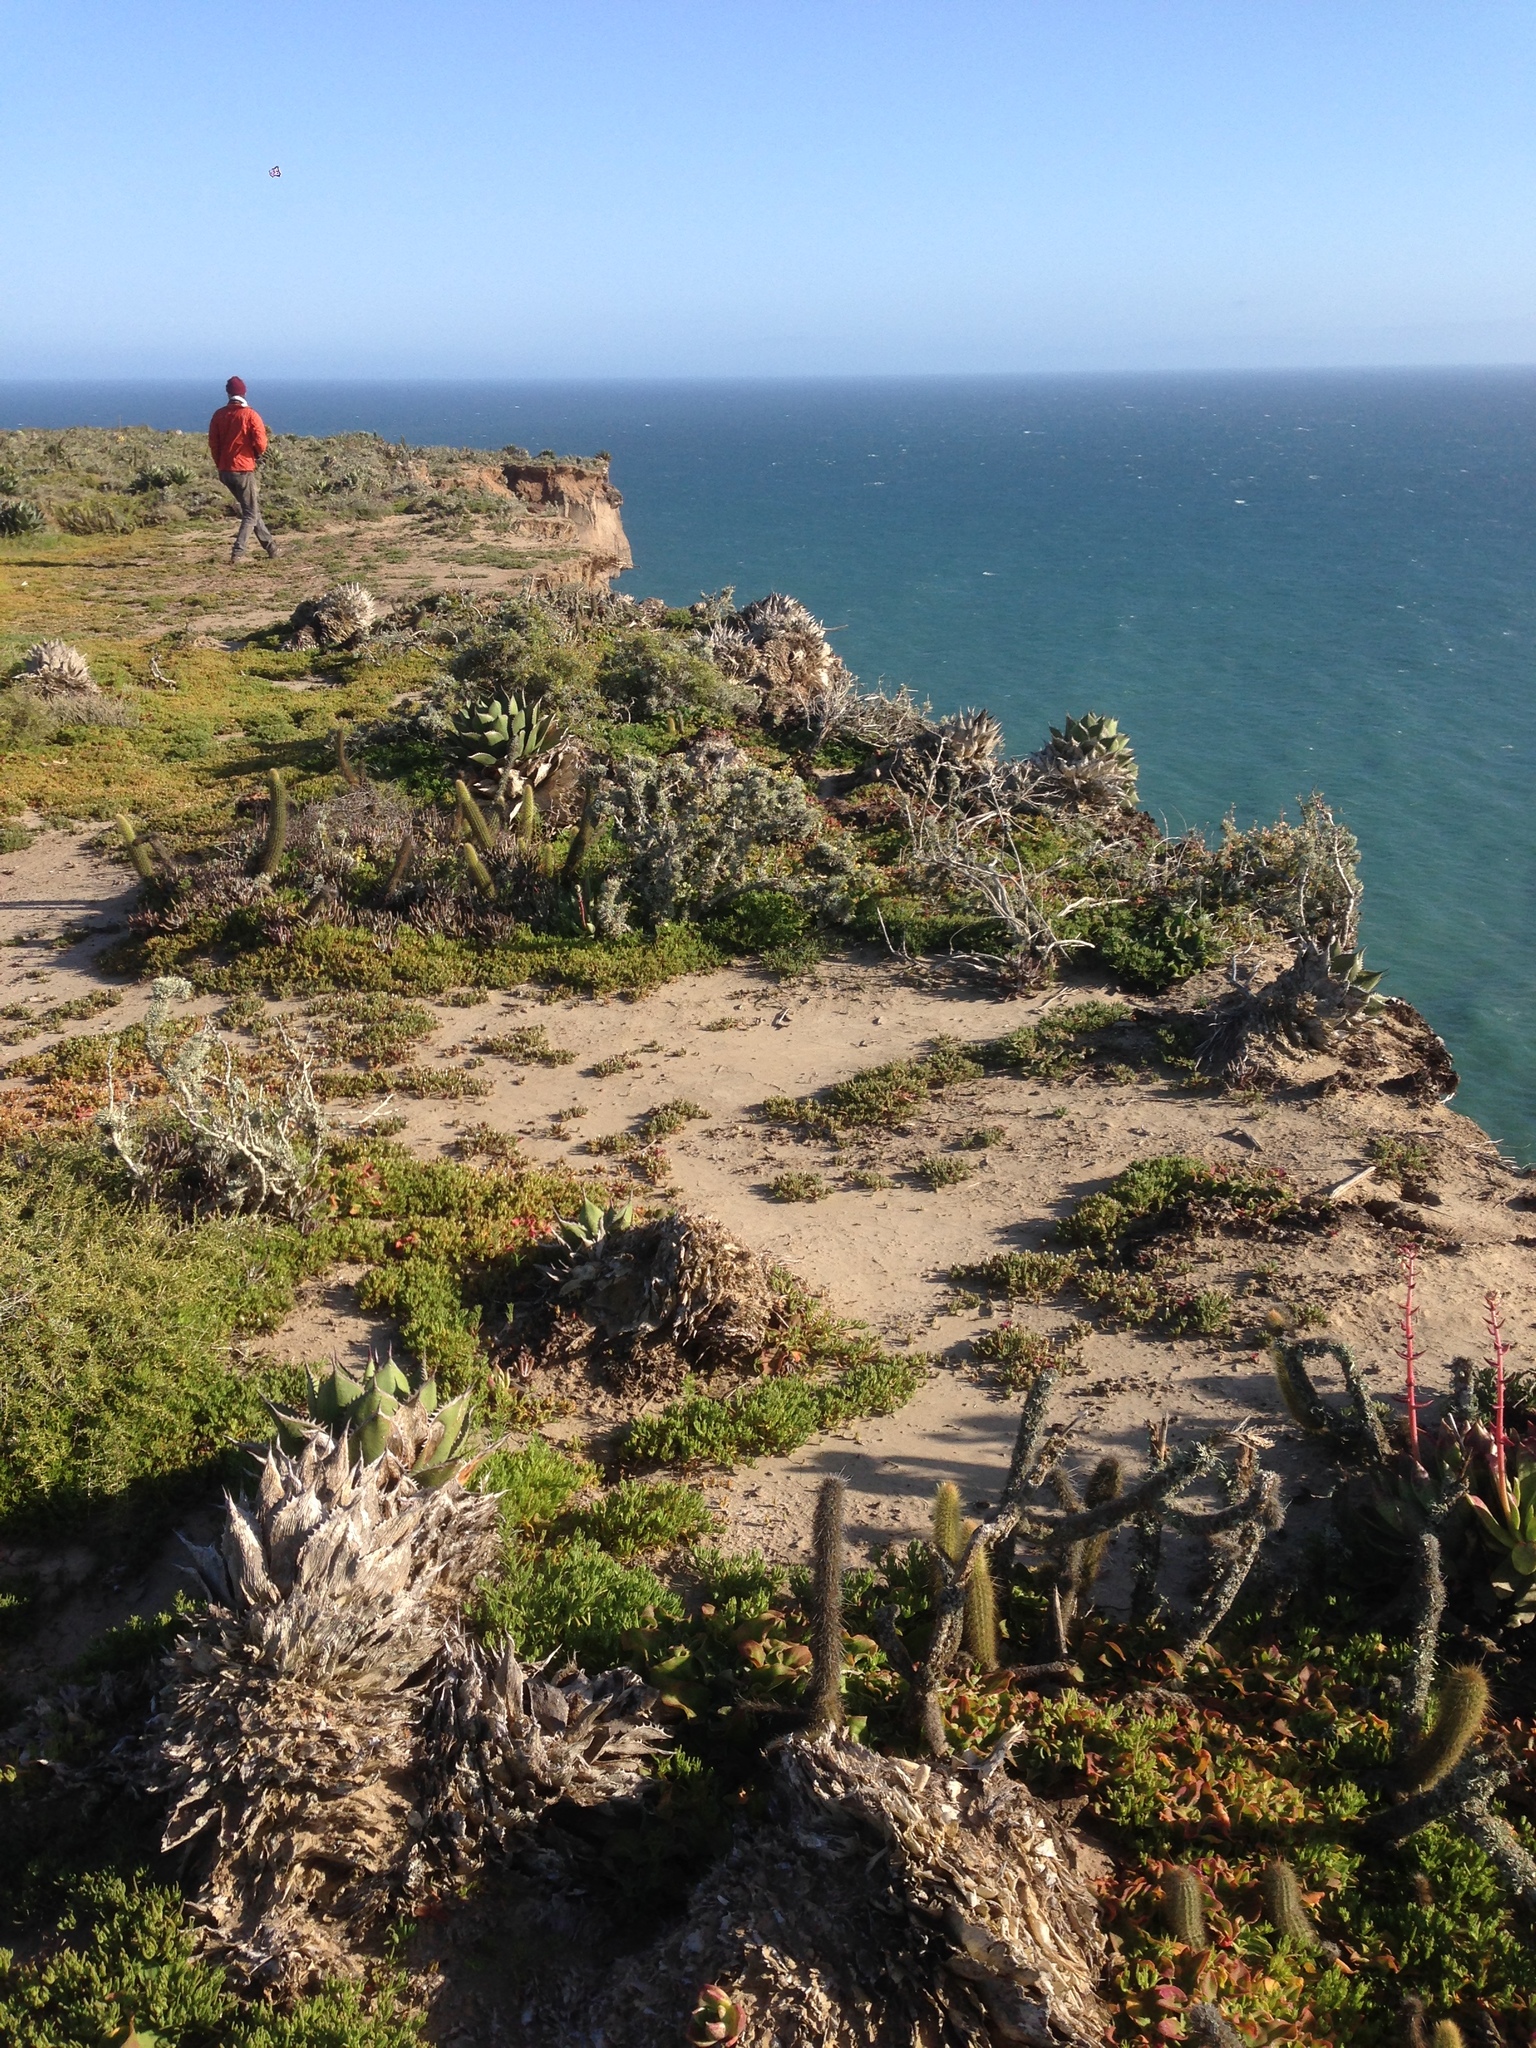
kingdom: Plantae
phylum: Tracheophyta
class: Liliopsida
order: Asparagales
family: Asparagaceae
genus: Agave
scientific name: Agave shawii
